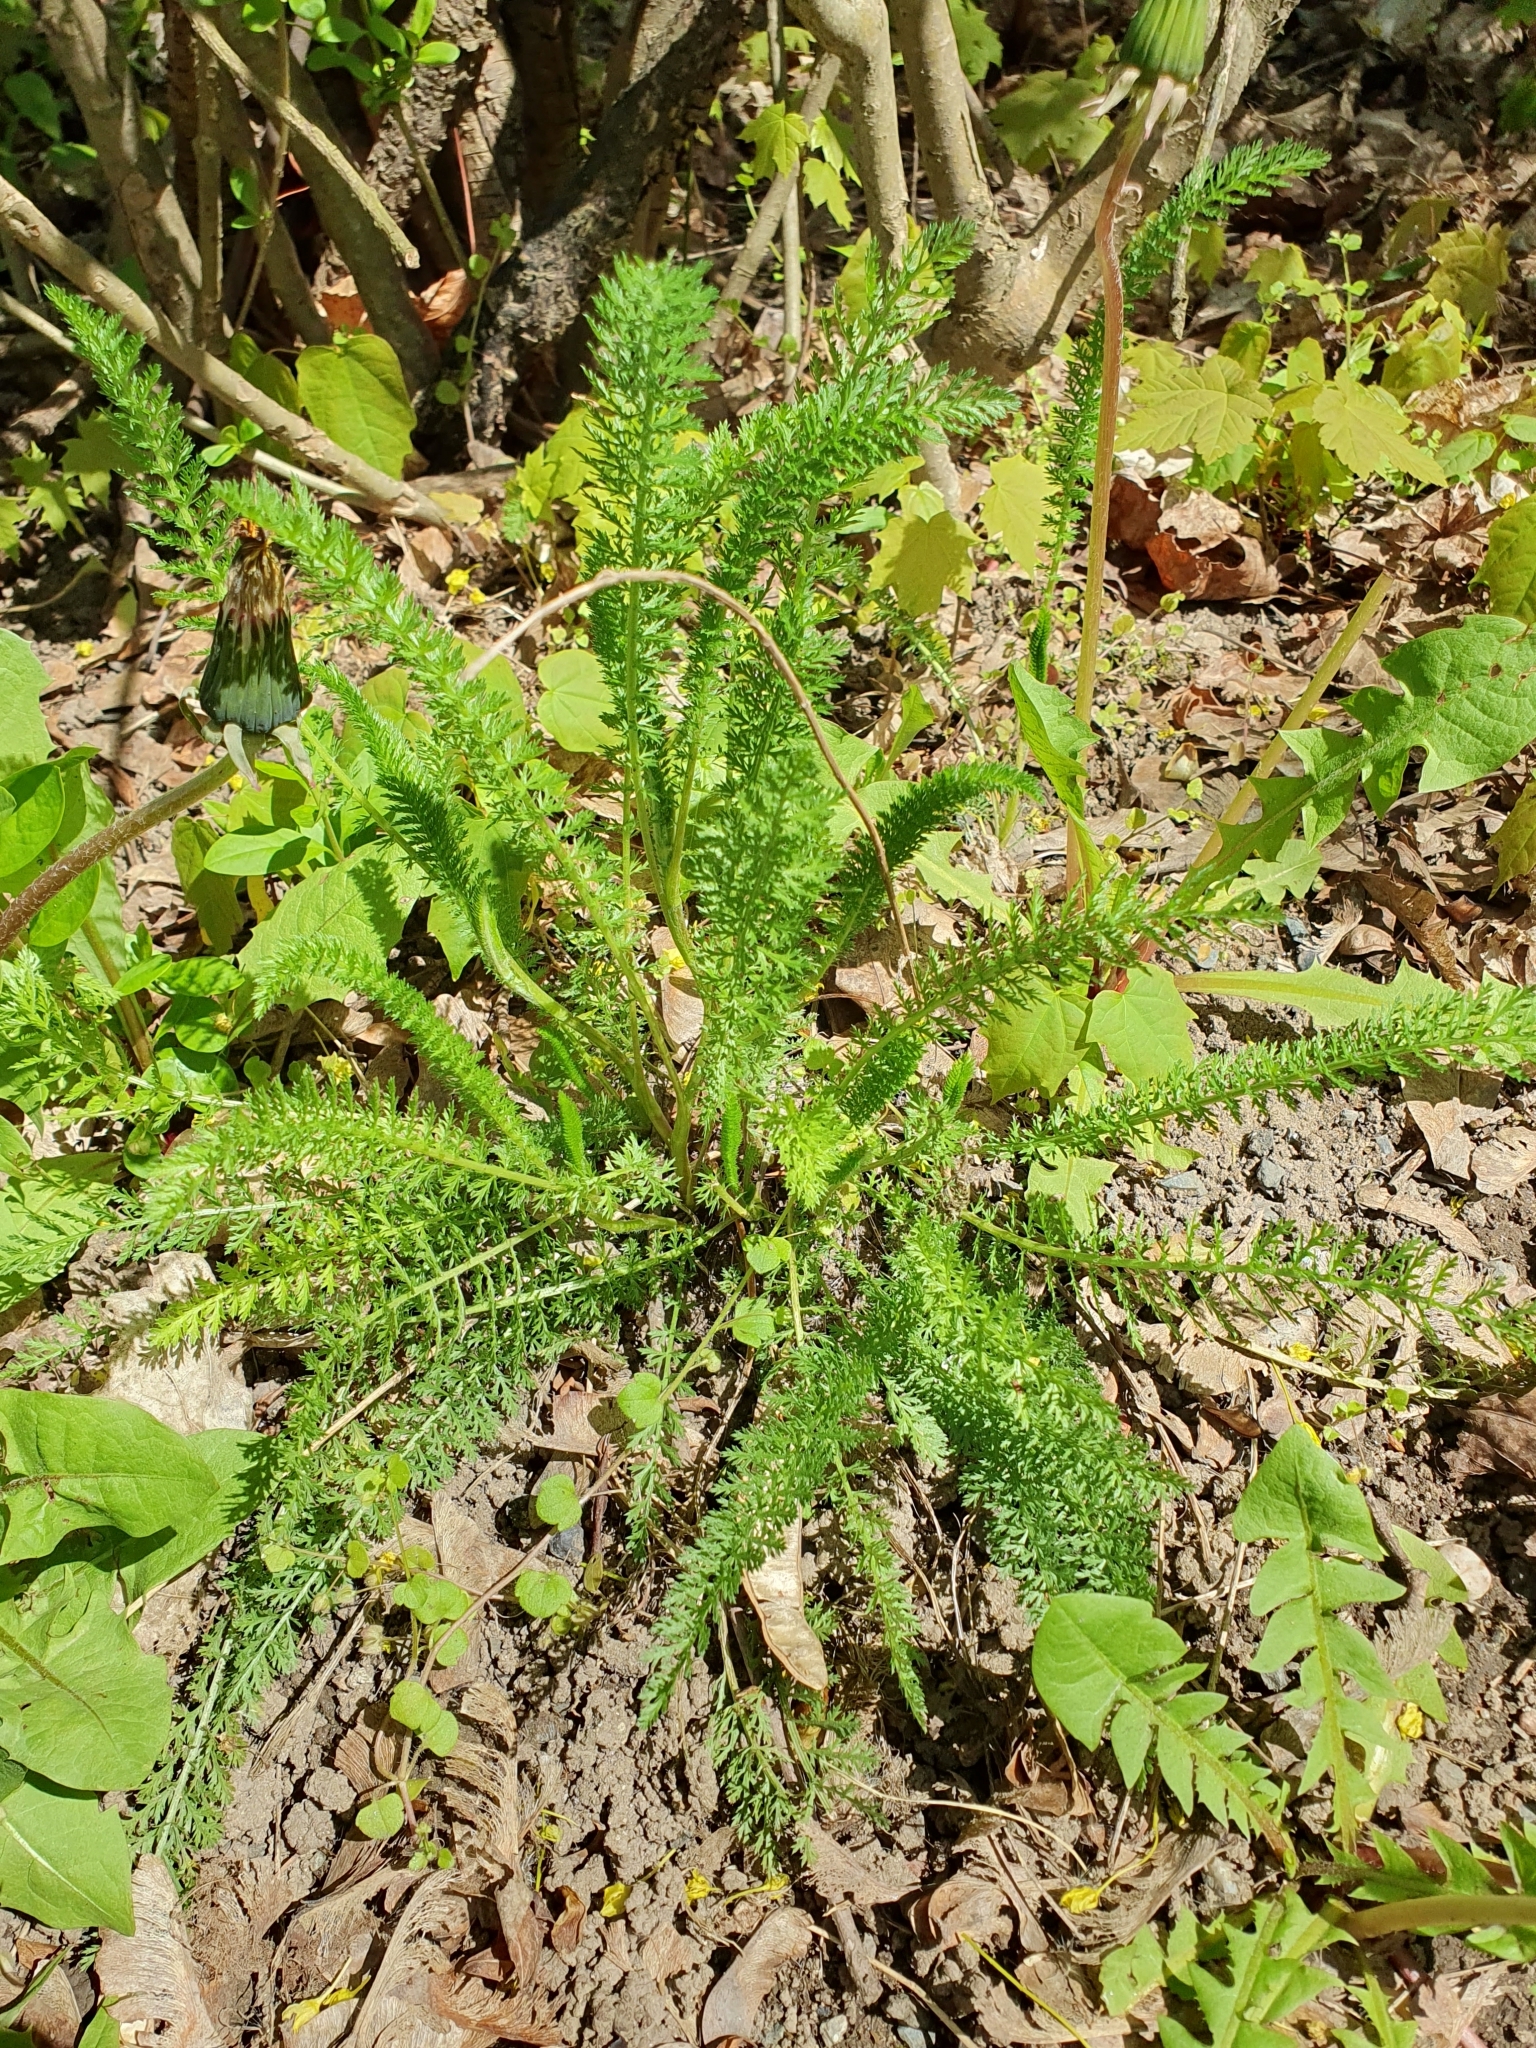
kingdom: Plantae
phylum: Tracheophyta
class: Magnoliopsida
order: Asterales
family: Asteraceae
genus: Achillea
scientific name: Achillea millefolium
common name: Yarrow
